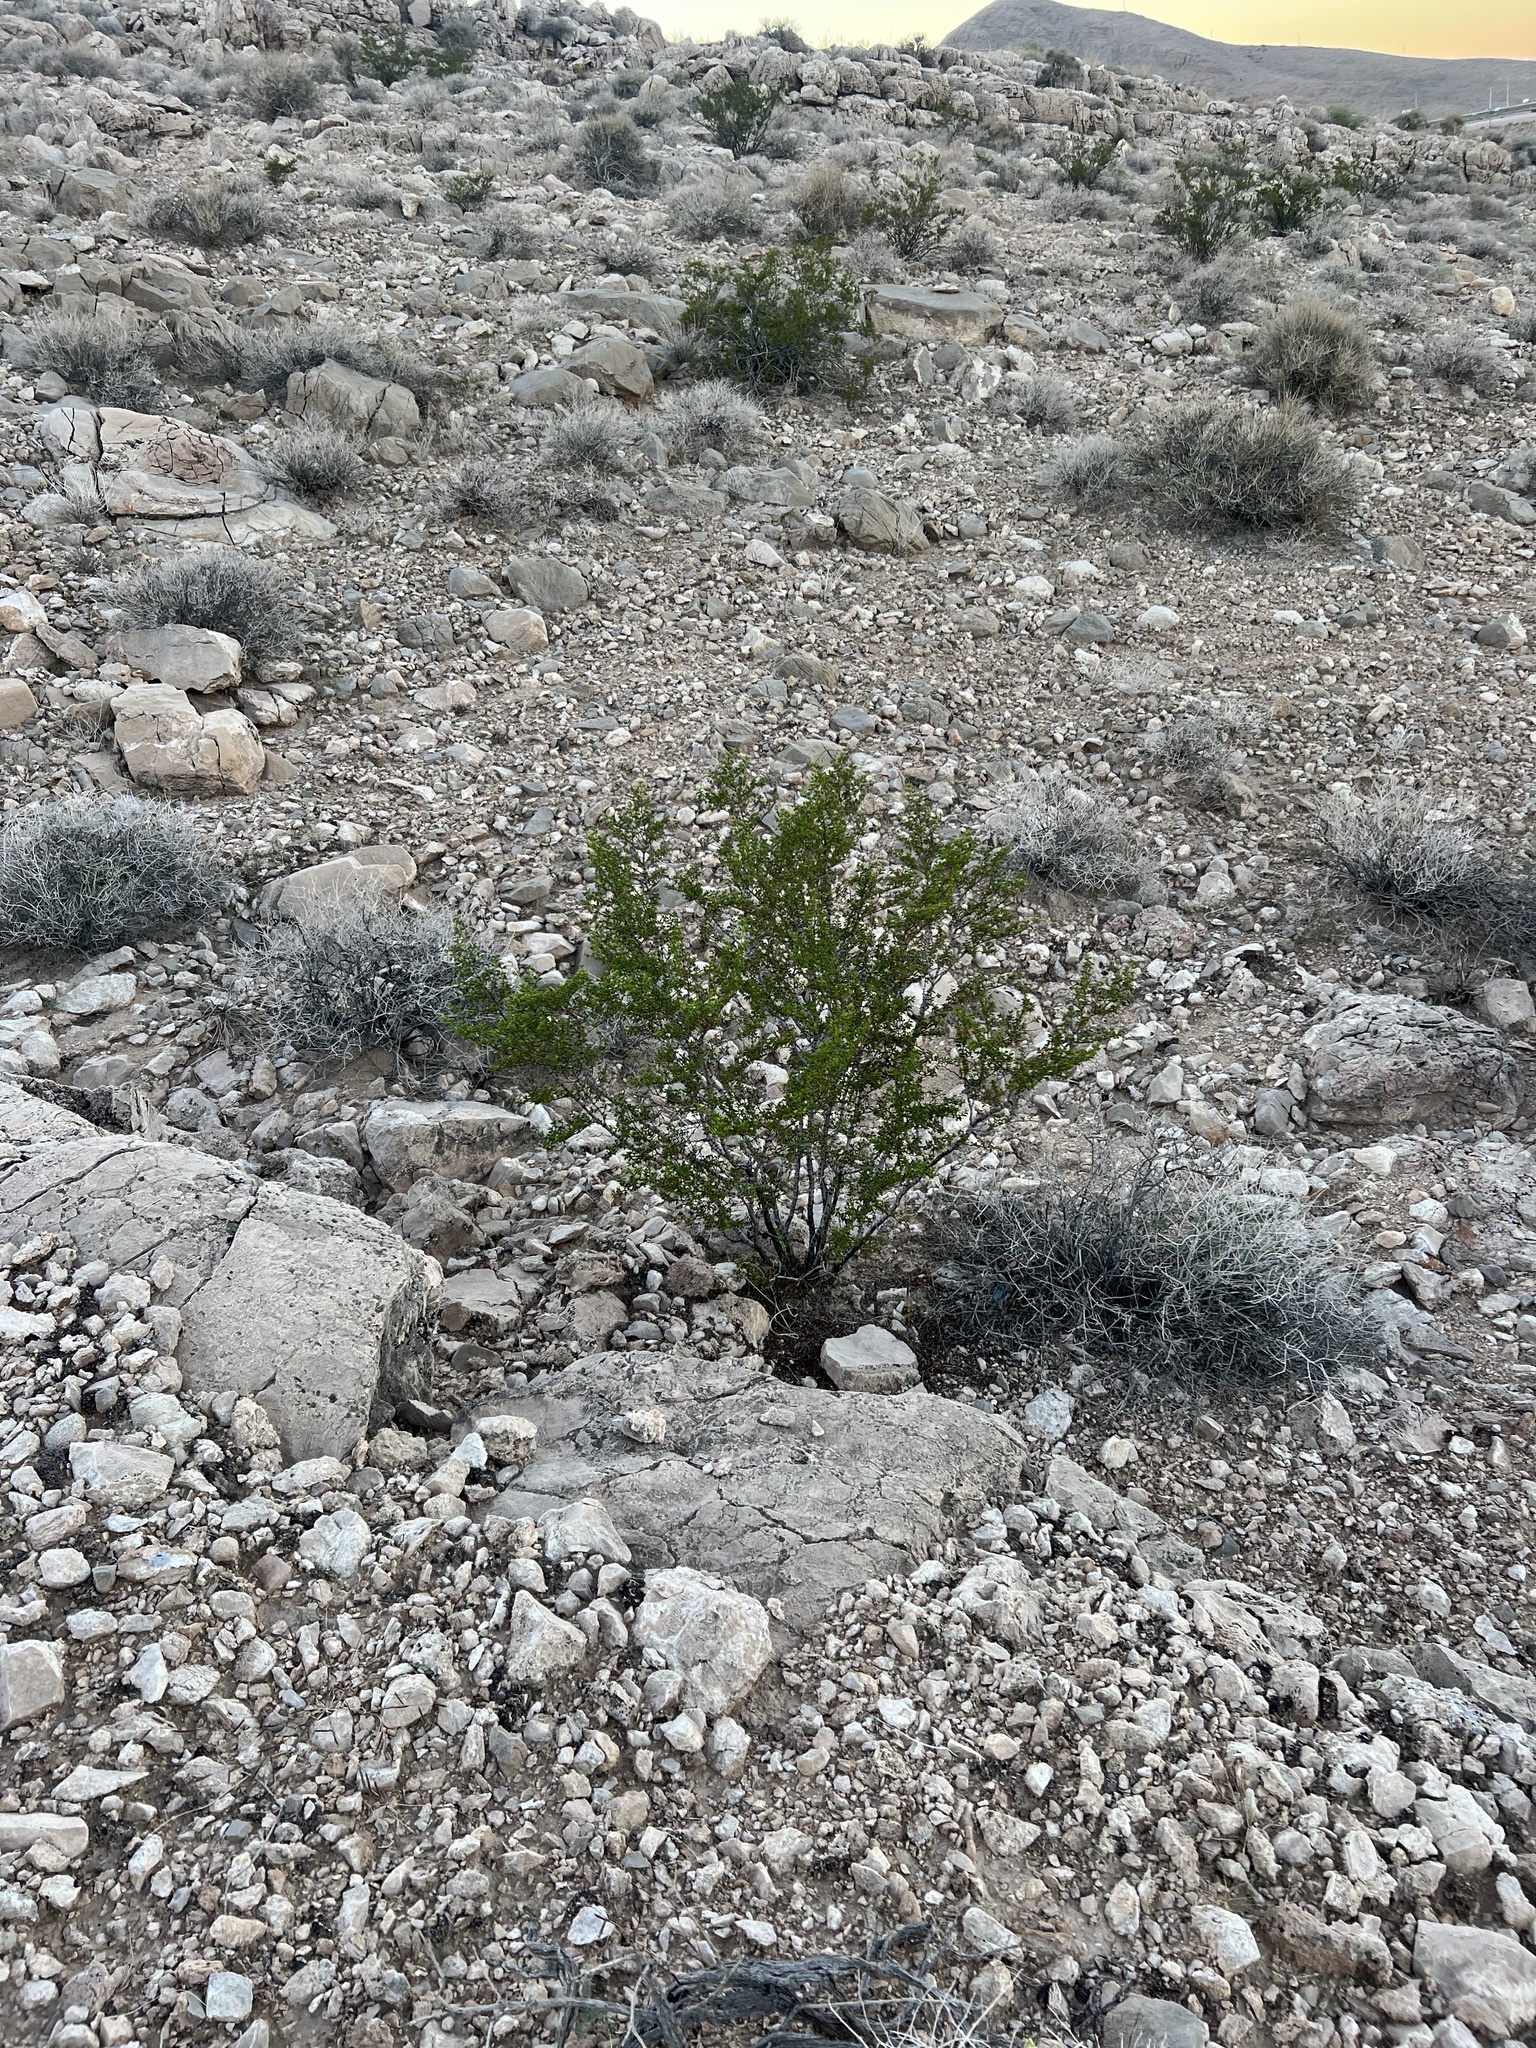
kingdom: Plantae
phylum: Tracheophyta
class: Magnoliopsida
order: Zygophyllales
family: Zygophyllaceae
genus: Larrea
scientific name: Larrea tridentata
